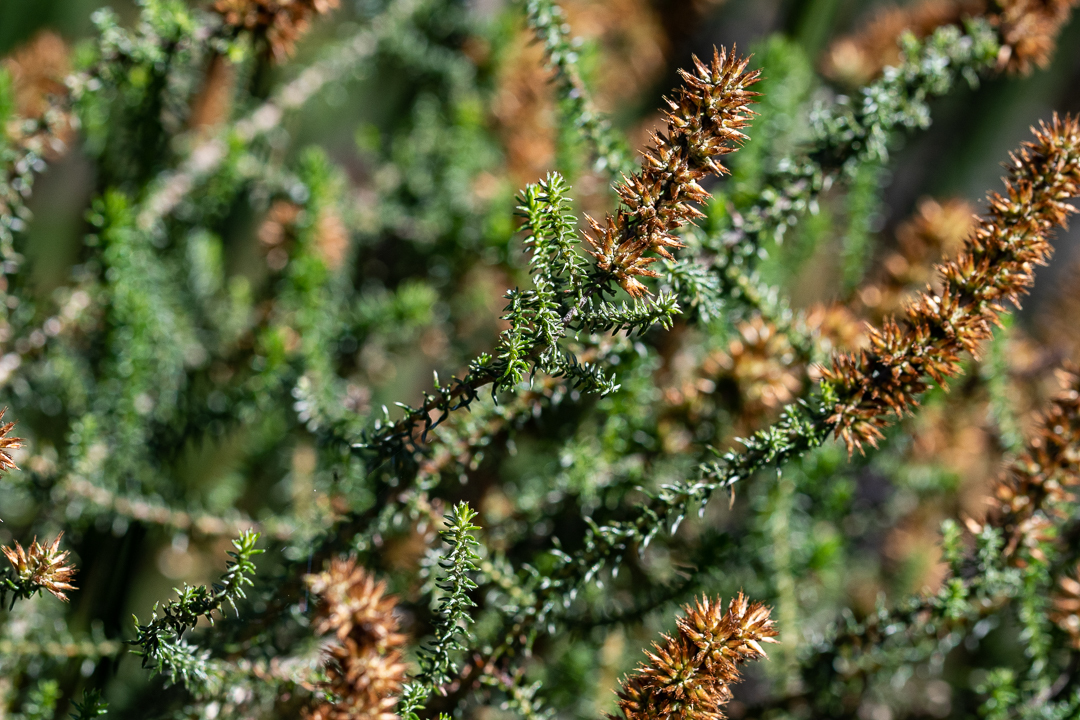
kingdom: Plantae
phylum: Tracheophyta
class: Magnoliopsida
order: Asterales
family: Asteraceae
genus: Seriphium
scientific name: Seriphium cinereum
